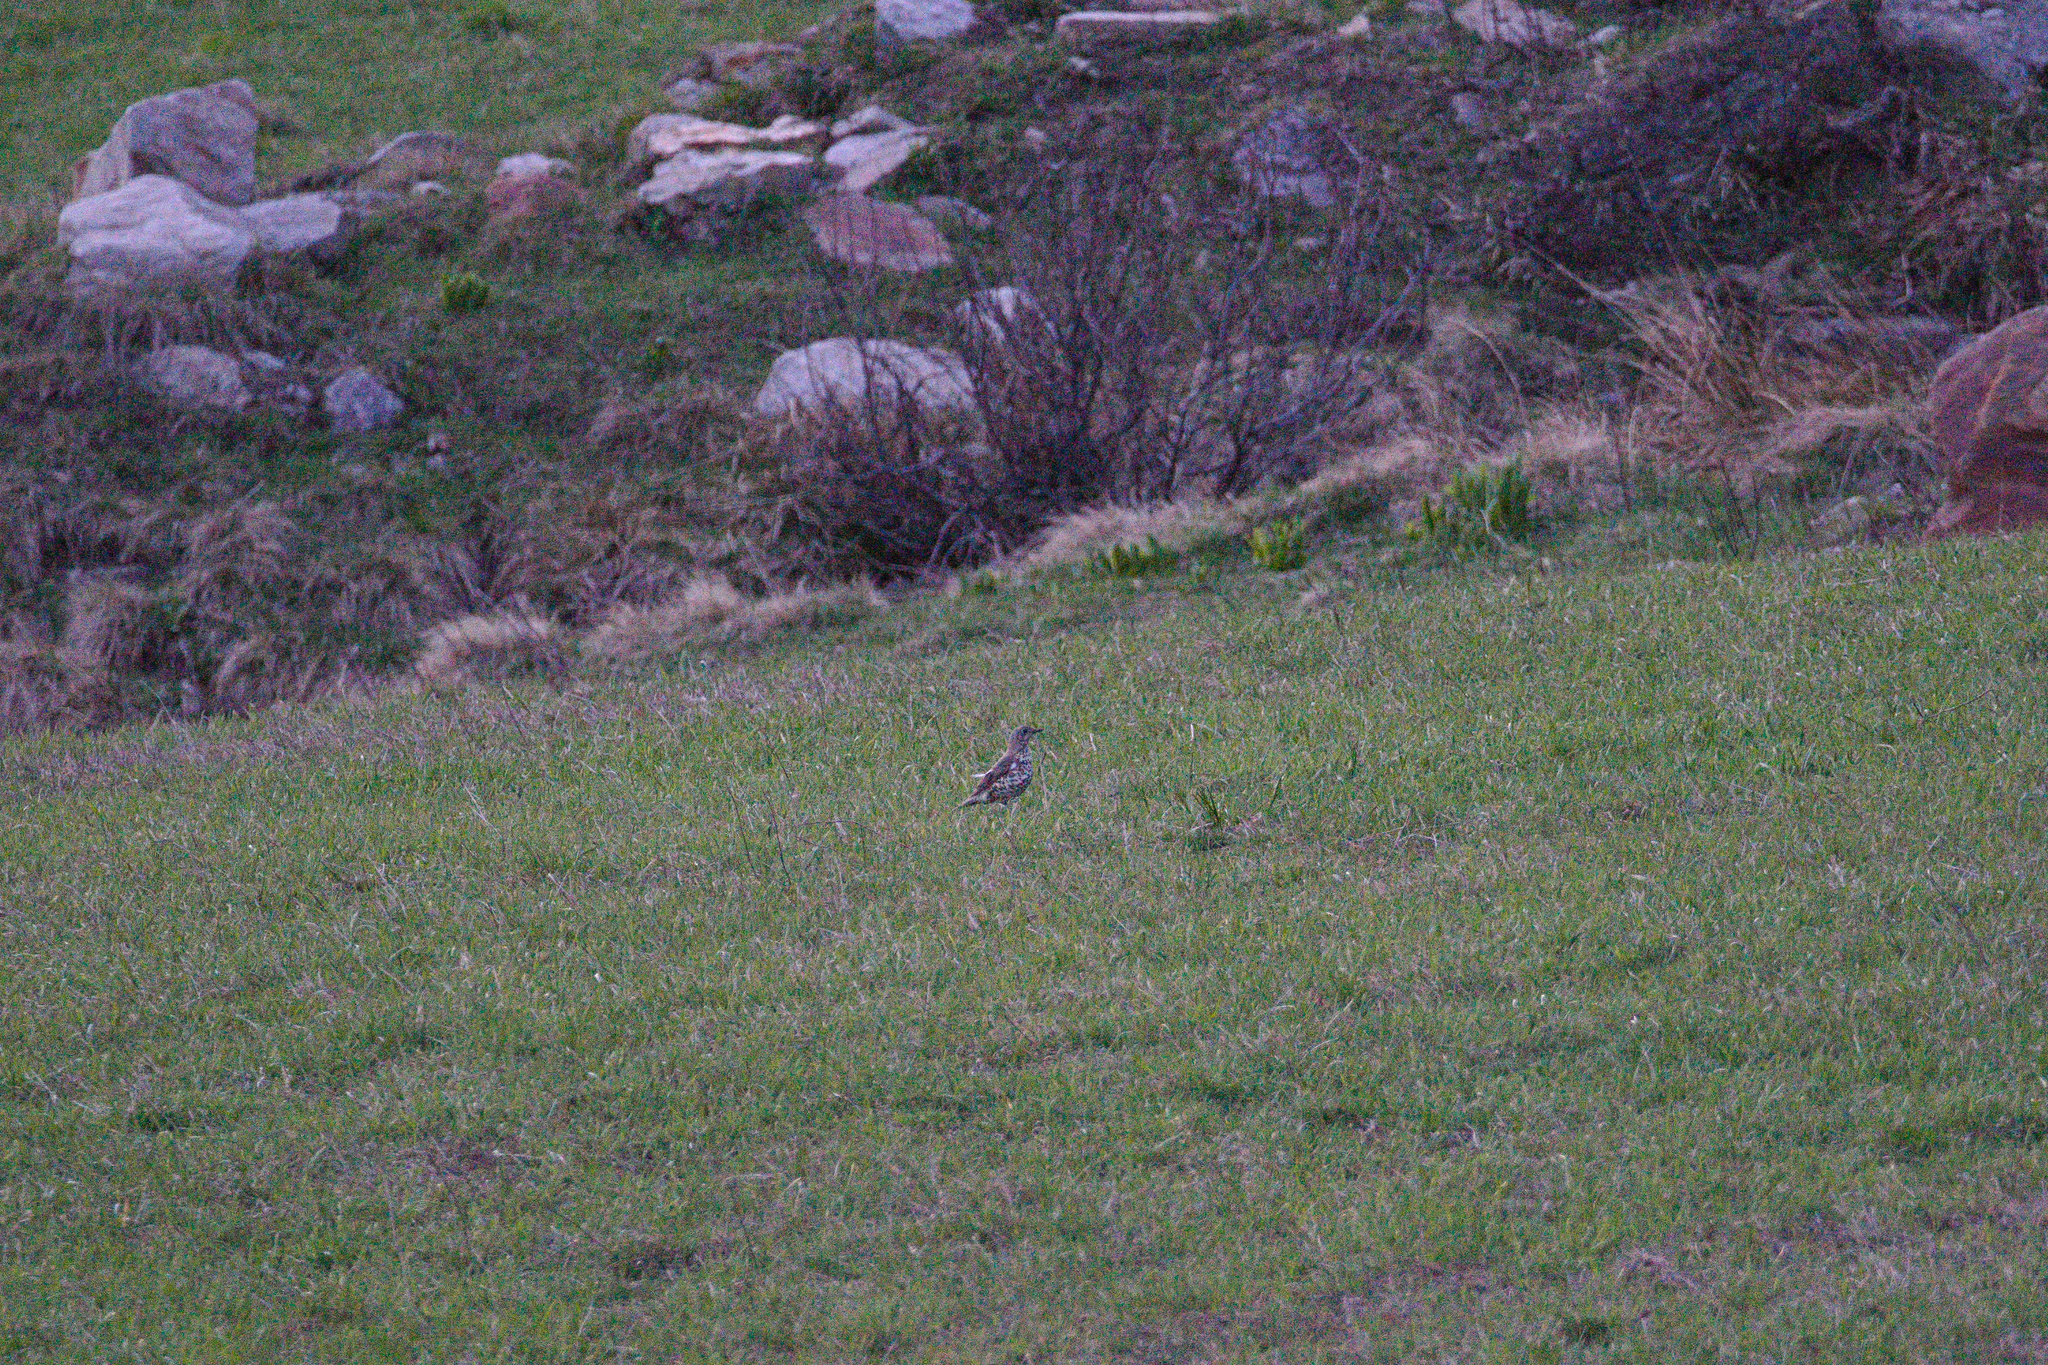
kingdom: Animalia
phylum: Chordata
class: Aves
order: Passeriformes
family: Turdidae
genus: Turdus
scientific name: Turdus viscivorus
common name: Mistle thrush
